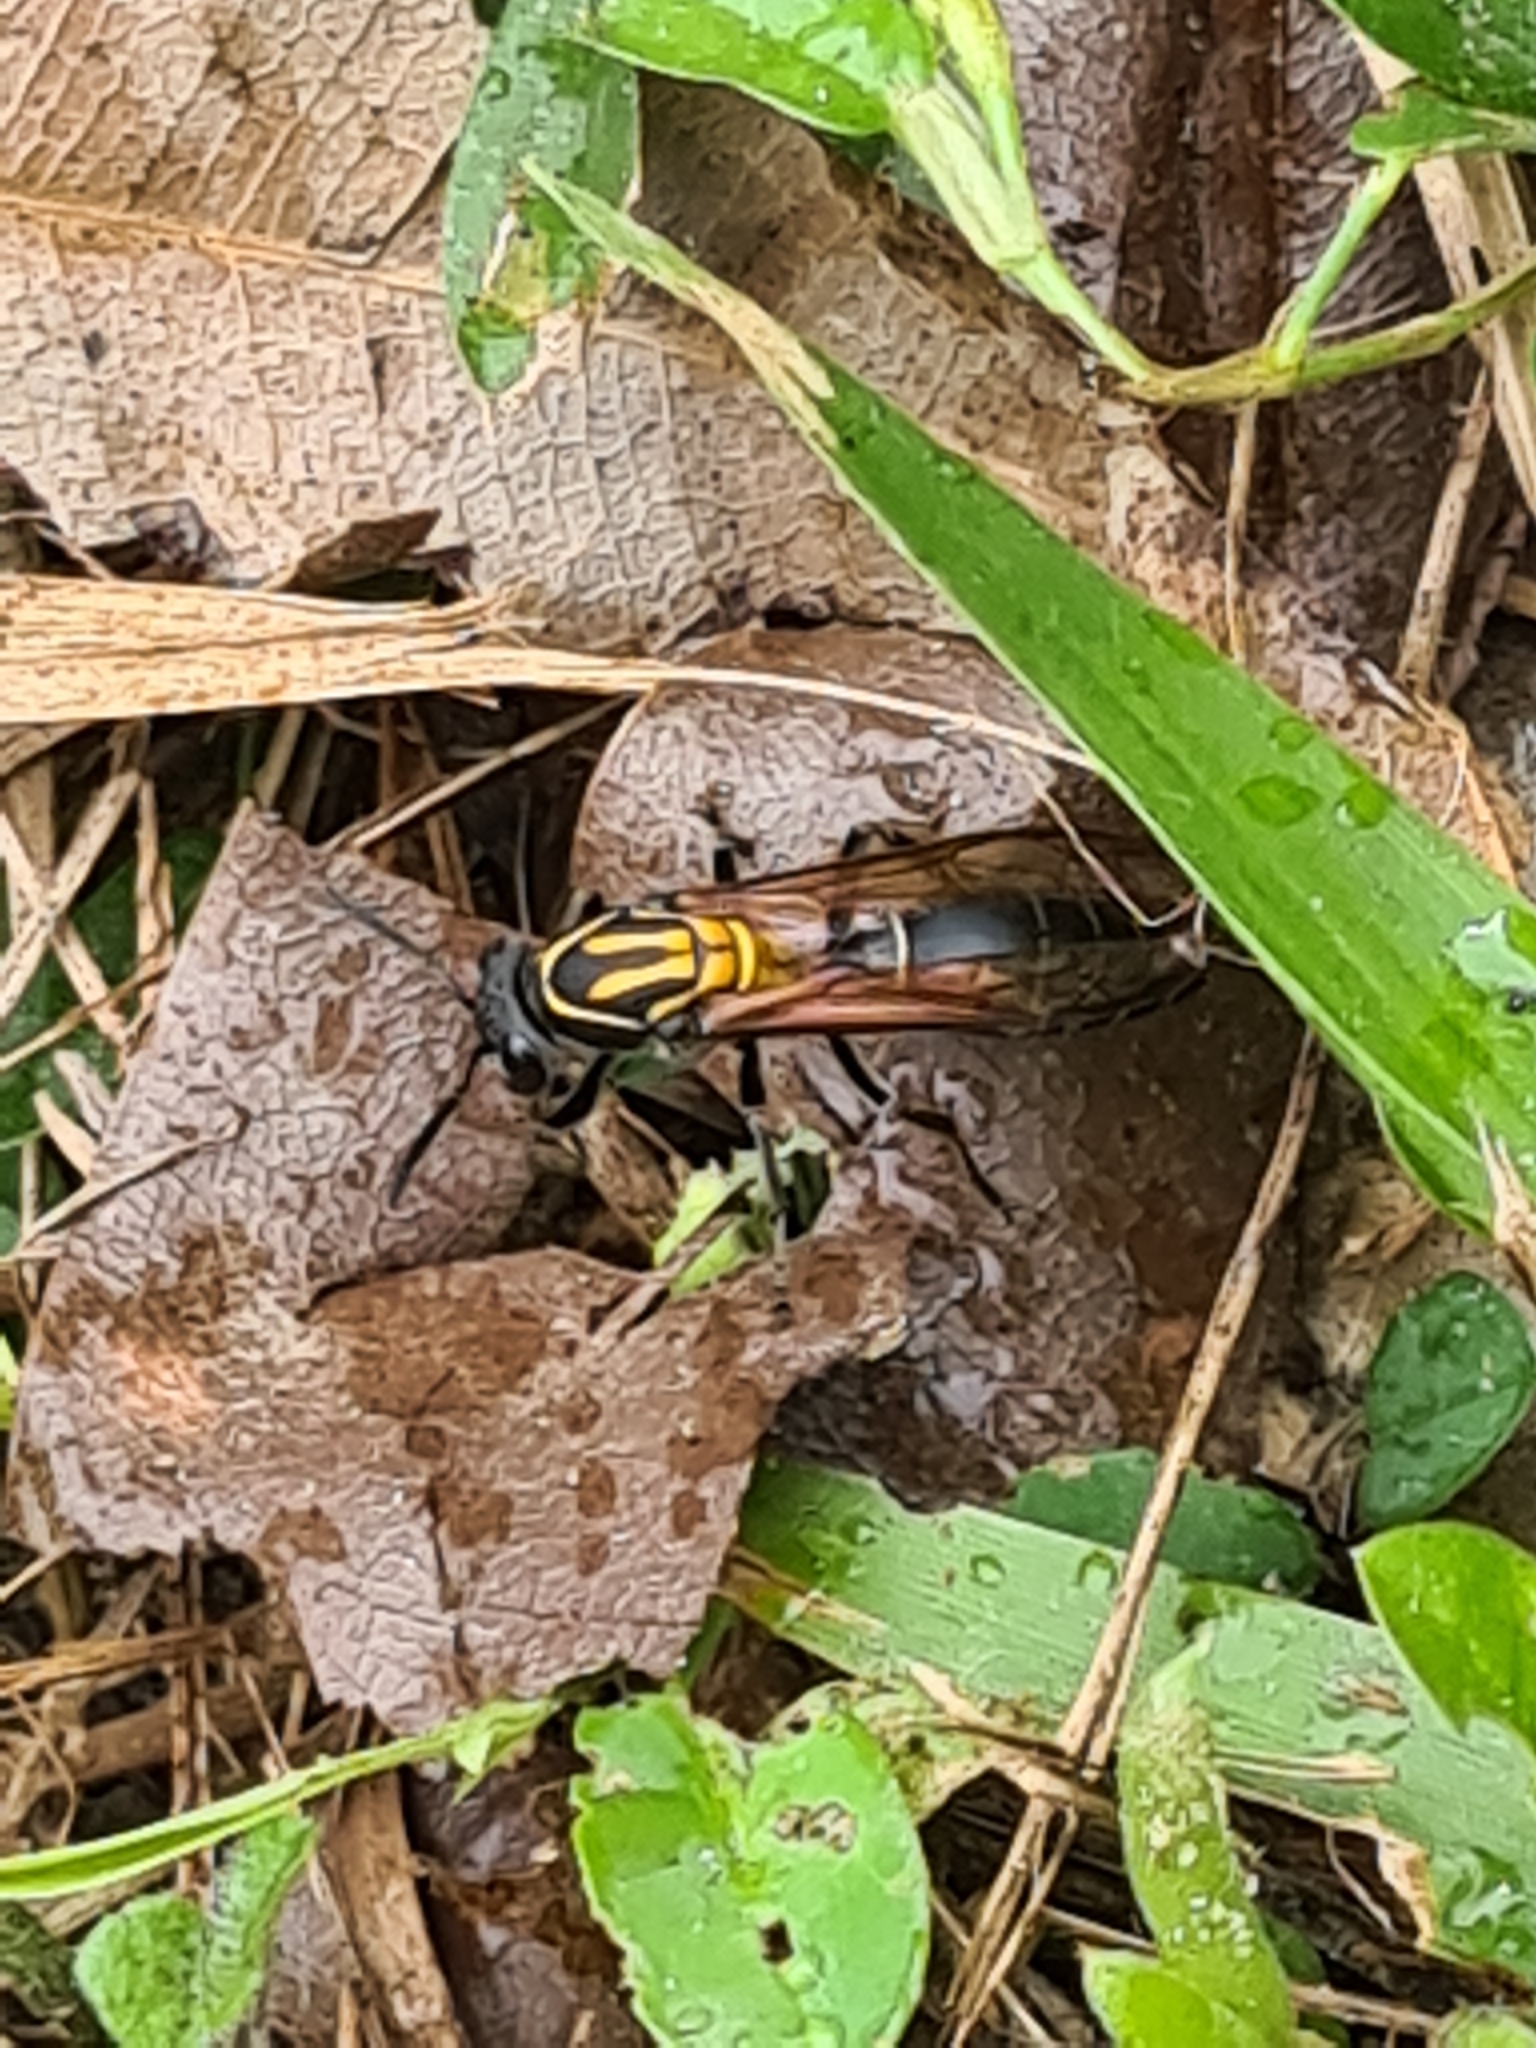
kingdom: Animalia
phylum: Arthropoda
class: Insecta
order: Hymenoptera
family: Eumenidae
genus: Polybia
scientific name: Polybia striata
